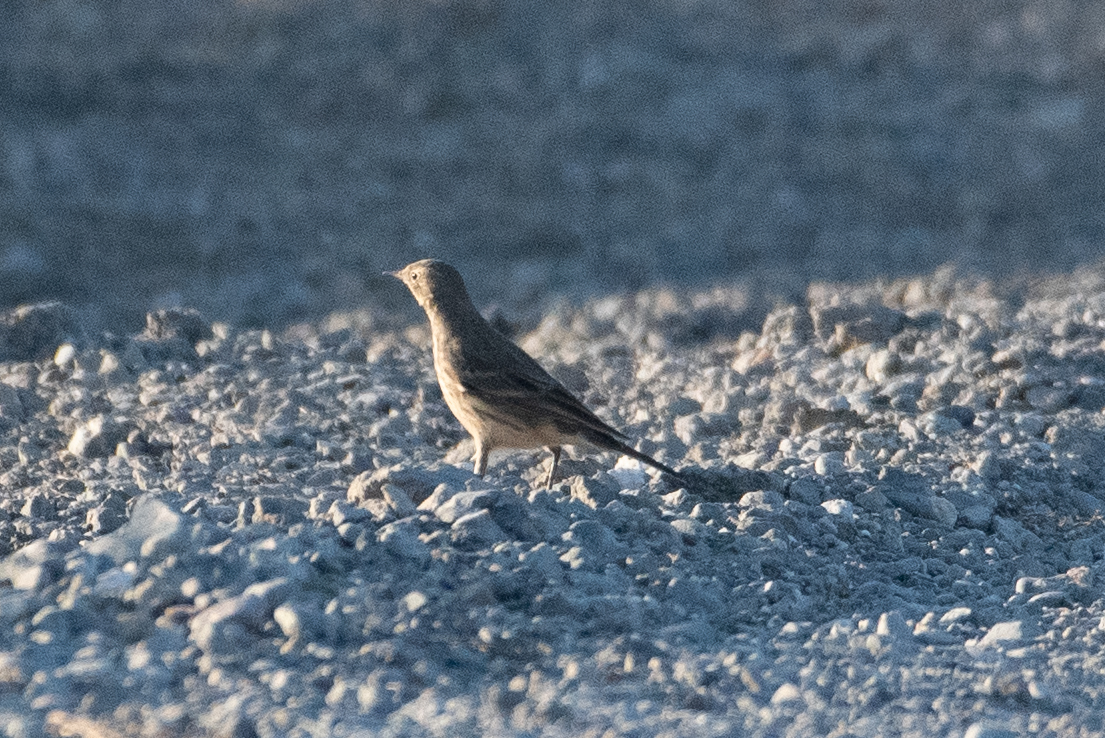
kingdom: Animalia
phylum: Chordata
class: Aves
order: Passeriformes
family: Motacillidae
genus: Anthus
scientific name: Anthus rubescens
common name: Buff-bellied pipit
